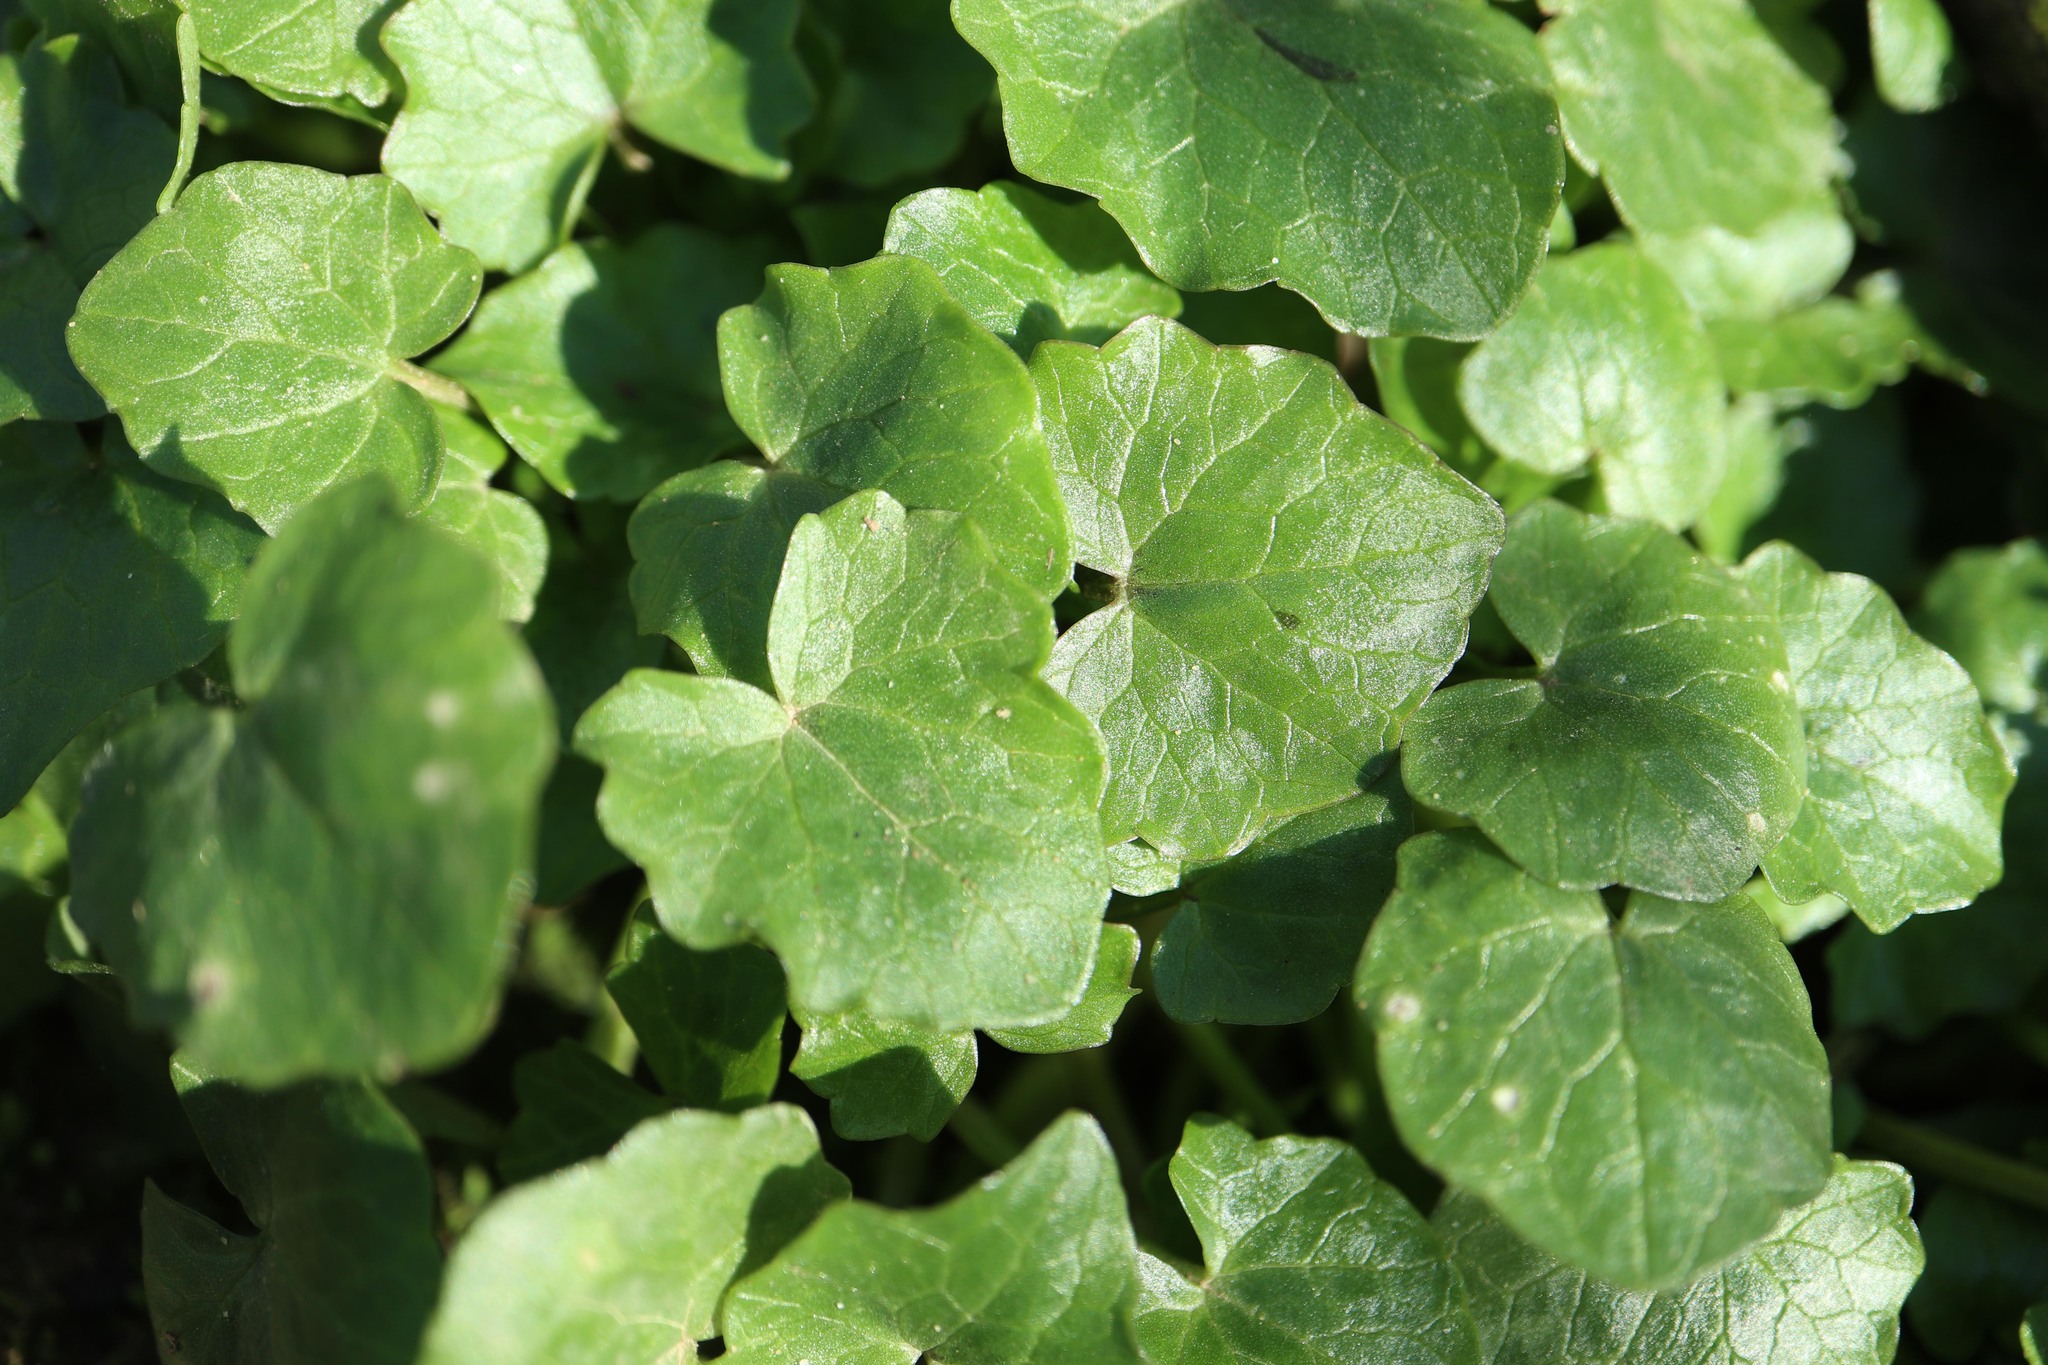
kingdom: Plantae
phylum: Tracheophyta
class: Magnoliopsida
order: Ranunculales
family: Ranunculaceae
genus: Ficaria
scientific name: Ficaria verna
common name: Lesser celandine
